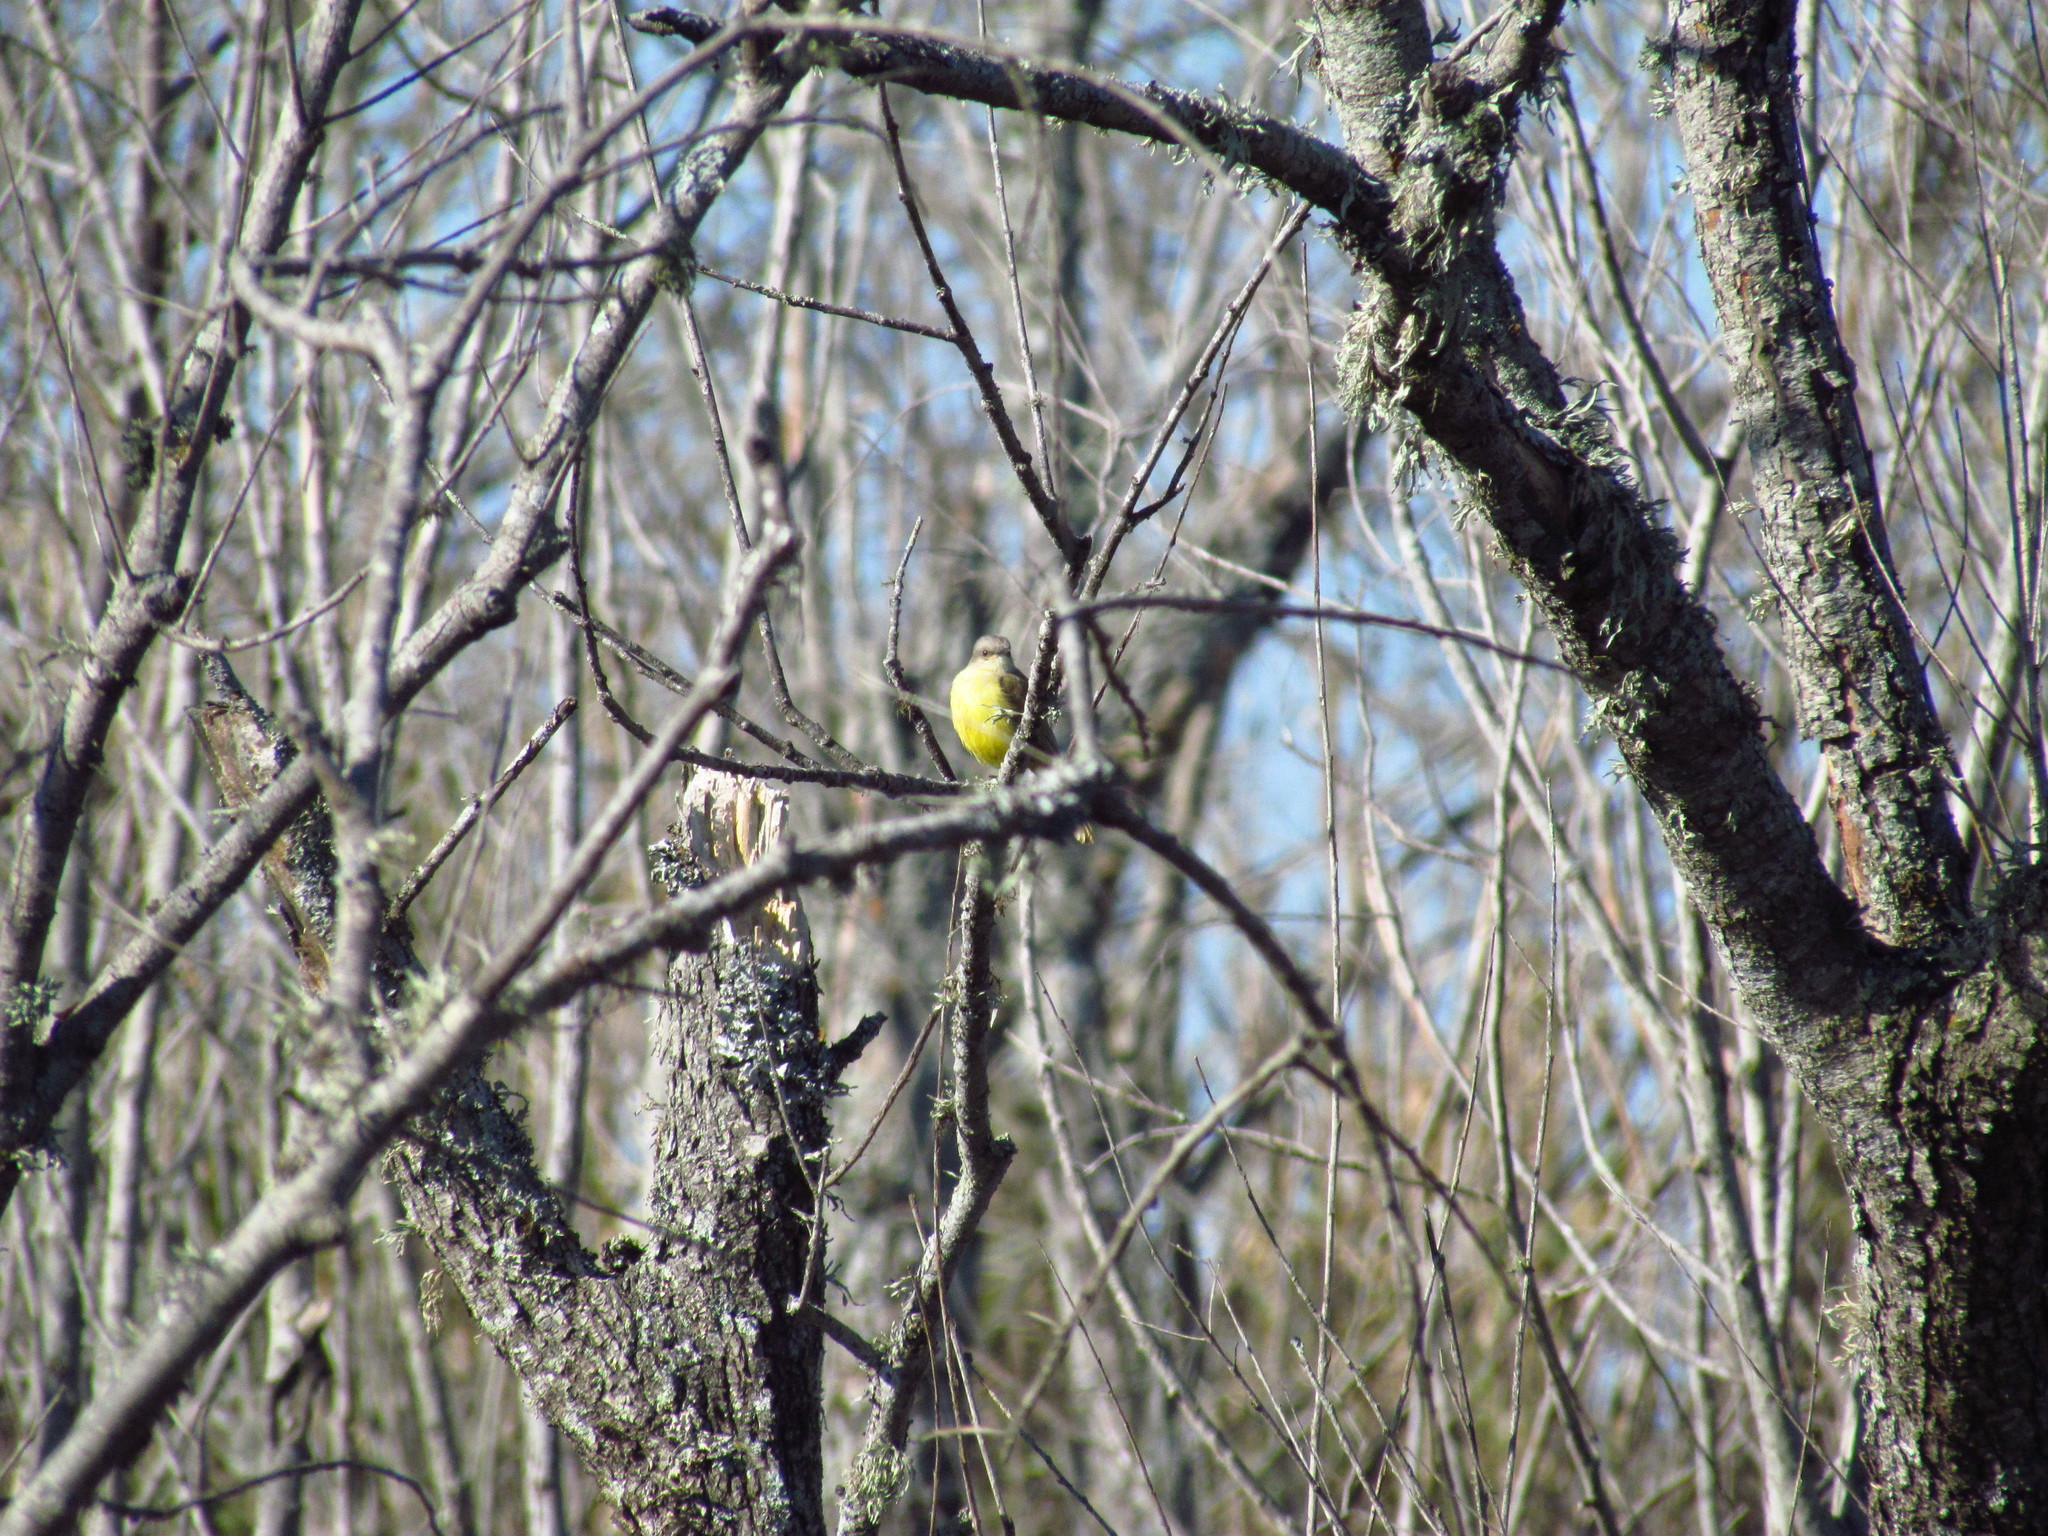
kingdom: Animalia
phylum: Chordata
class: Aves
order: Passeriformes
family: Tyrannidae
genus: Tyrannus
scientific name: Tyrannus melancholicus
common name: Tropical kingbird
